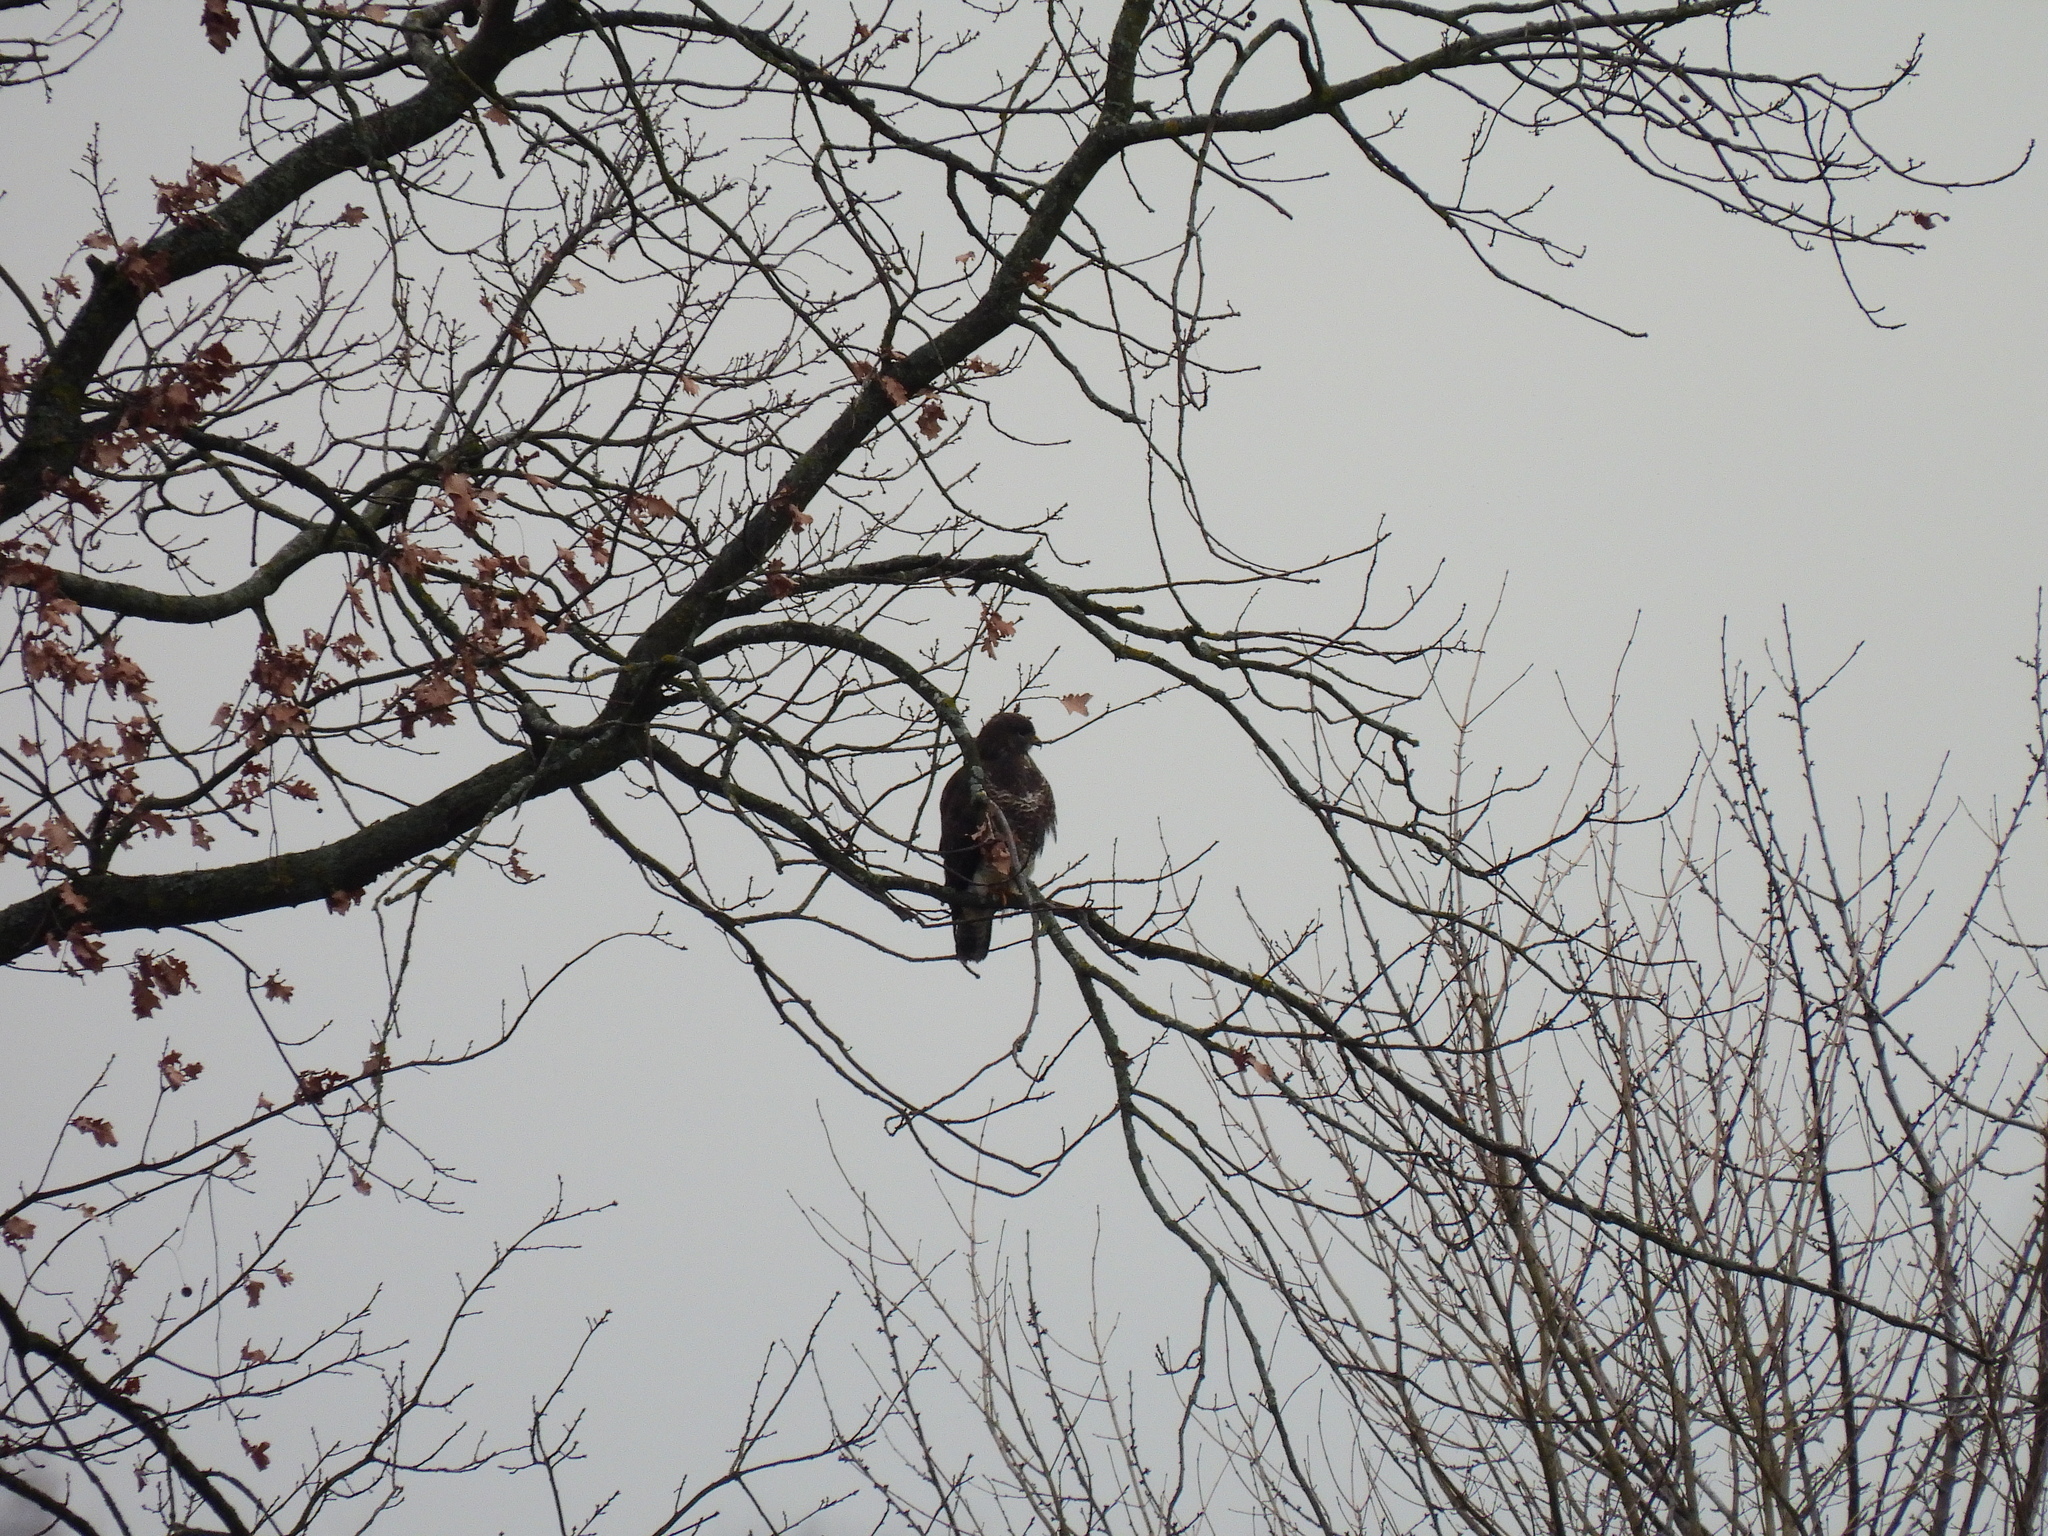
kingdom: Animalia
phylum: Chordata
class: Aves
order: Accipitriformes
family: Accipitridae
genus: Buteo
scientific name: Buteo buteo
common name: Common buzzard
